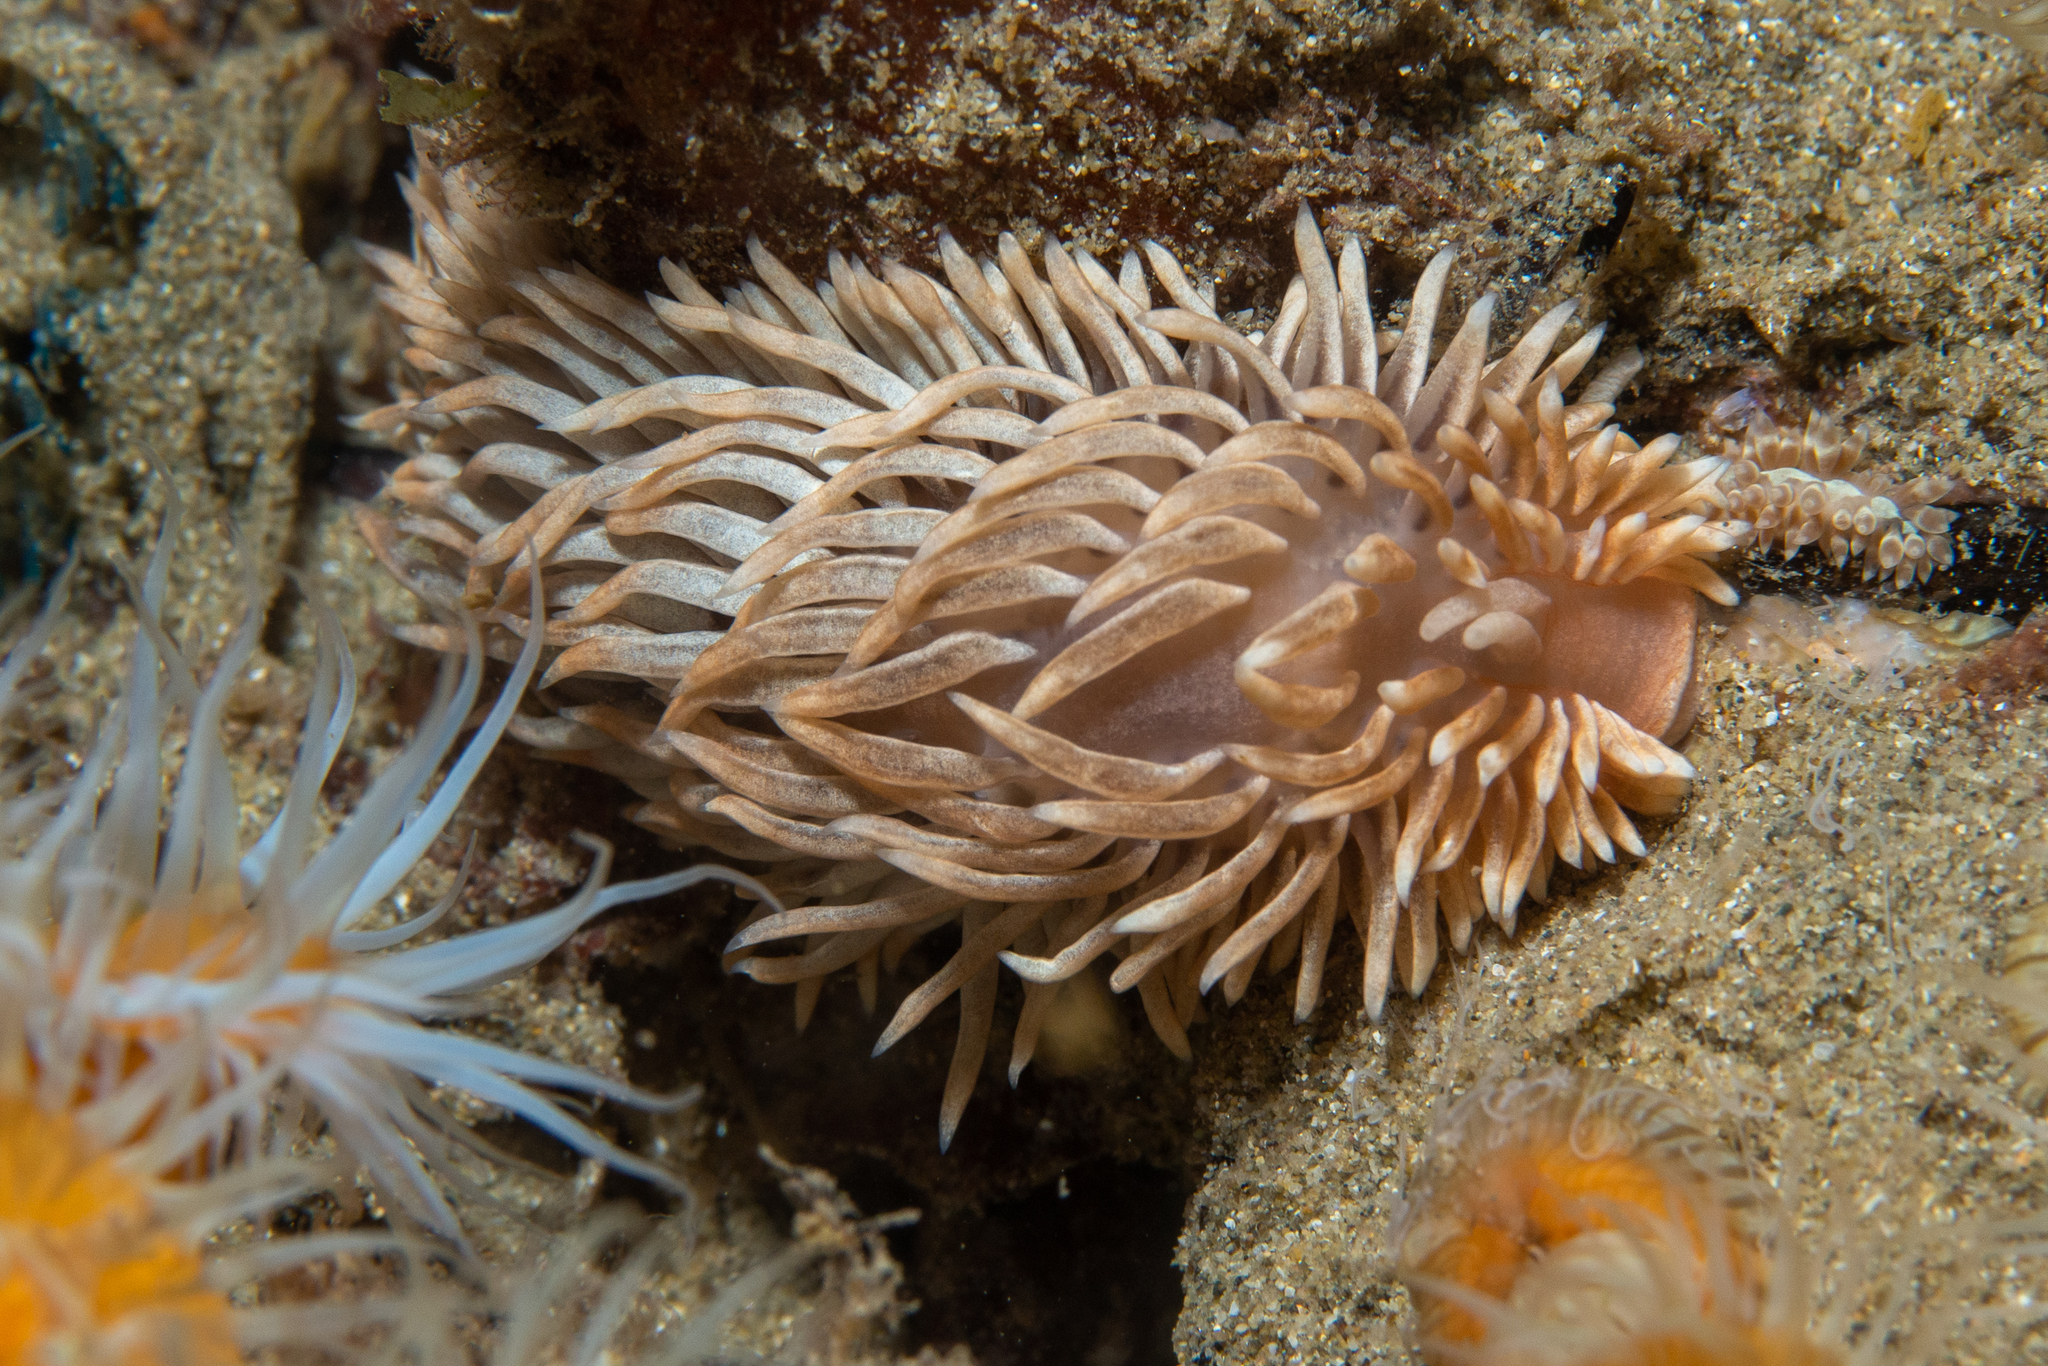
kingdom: Animalia
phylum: Mollusca
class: Gastropoda
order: Nudibranchia
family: Aeolidiidae
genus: Aeolidiella
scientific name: Aeolidiella drusilla
